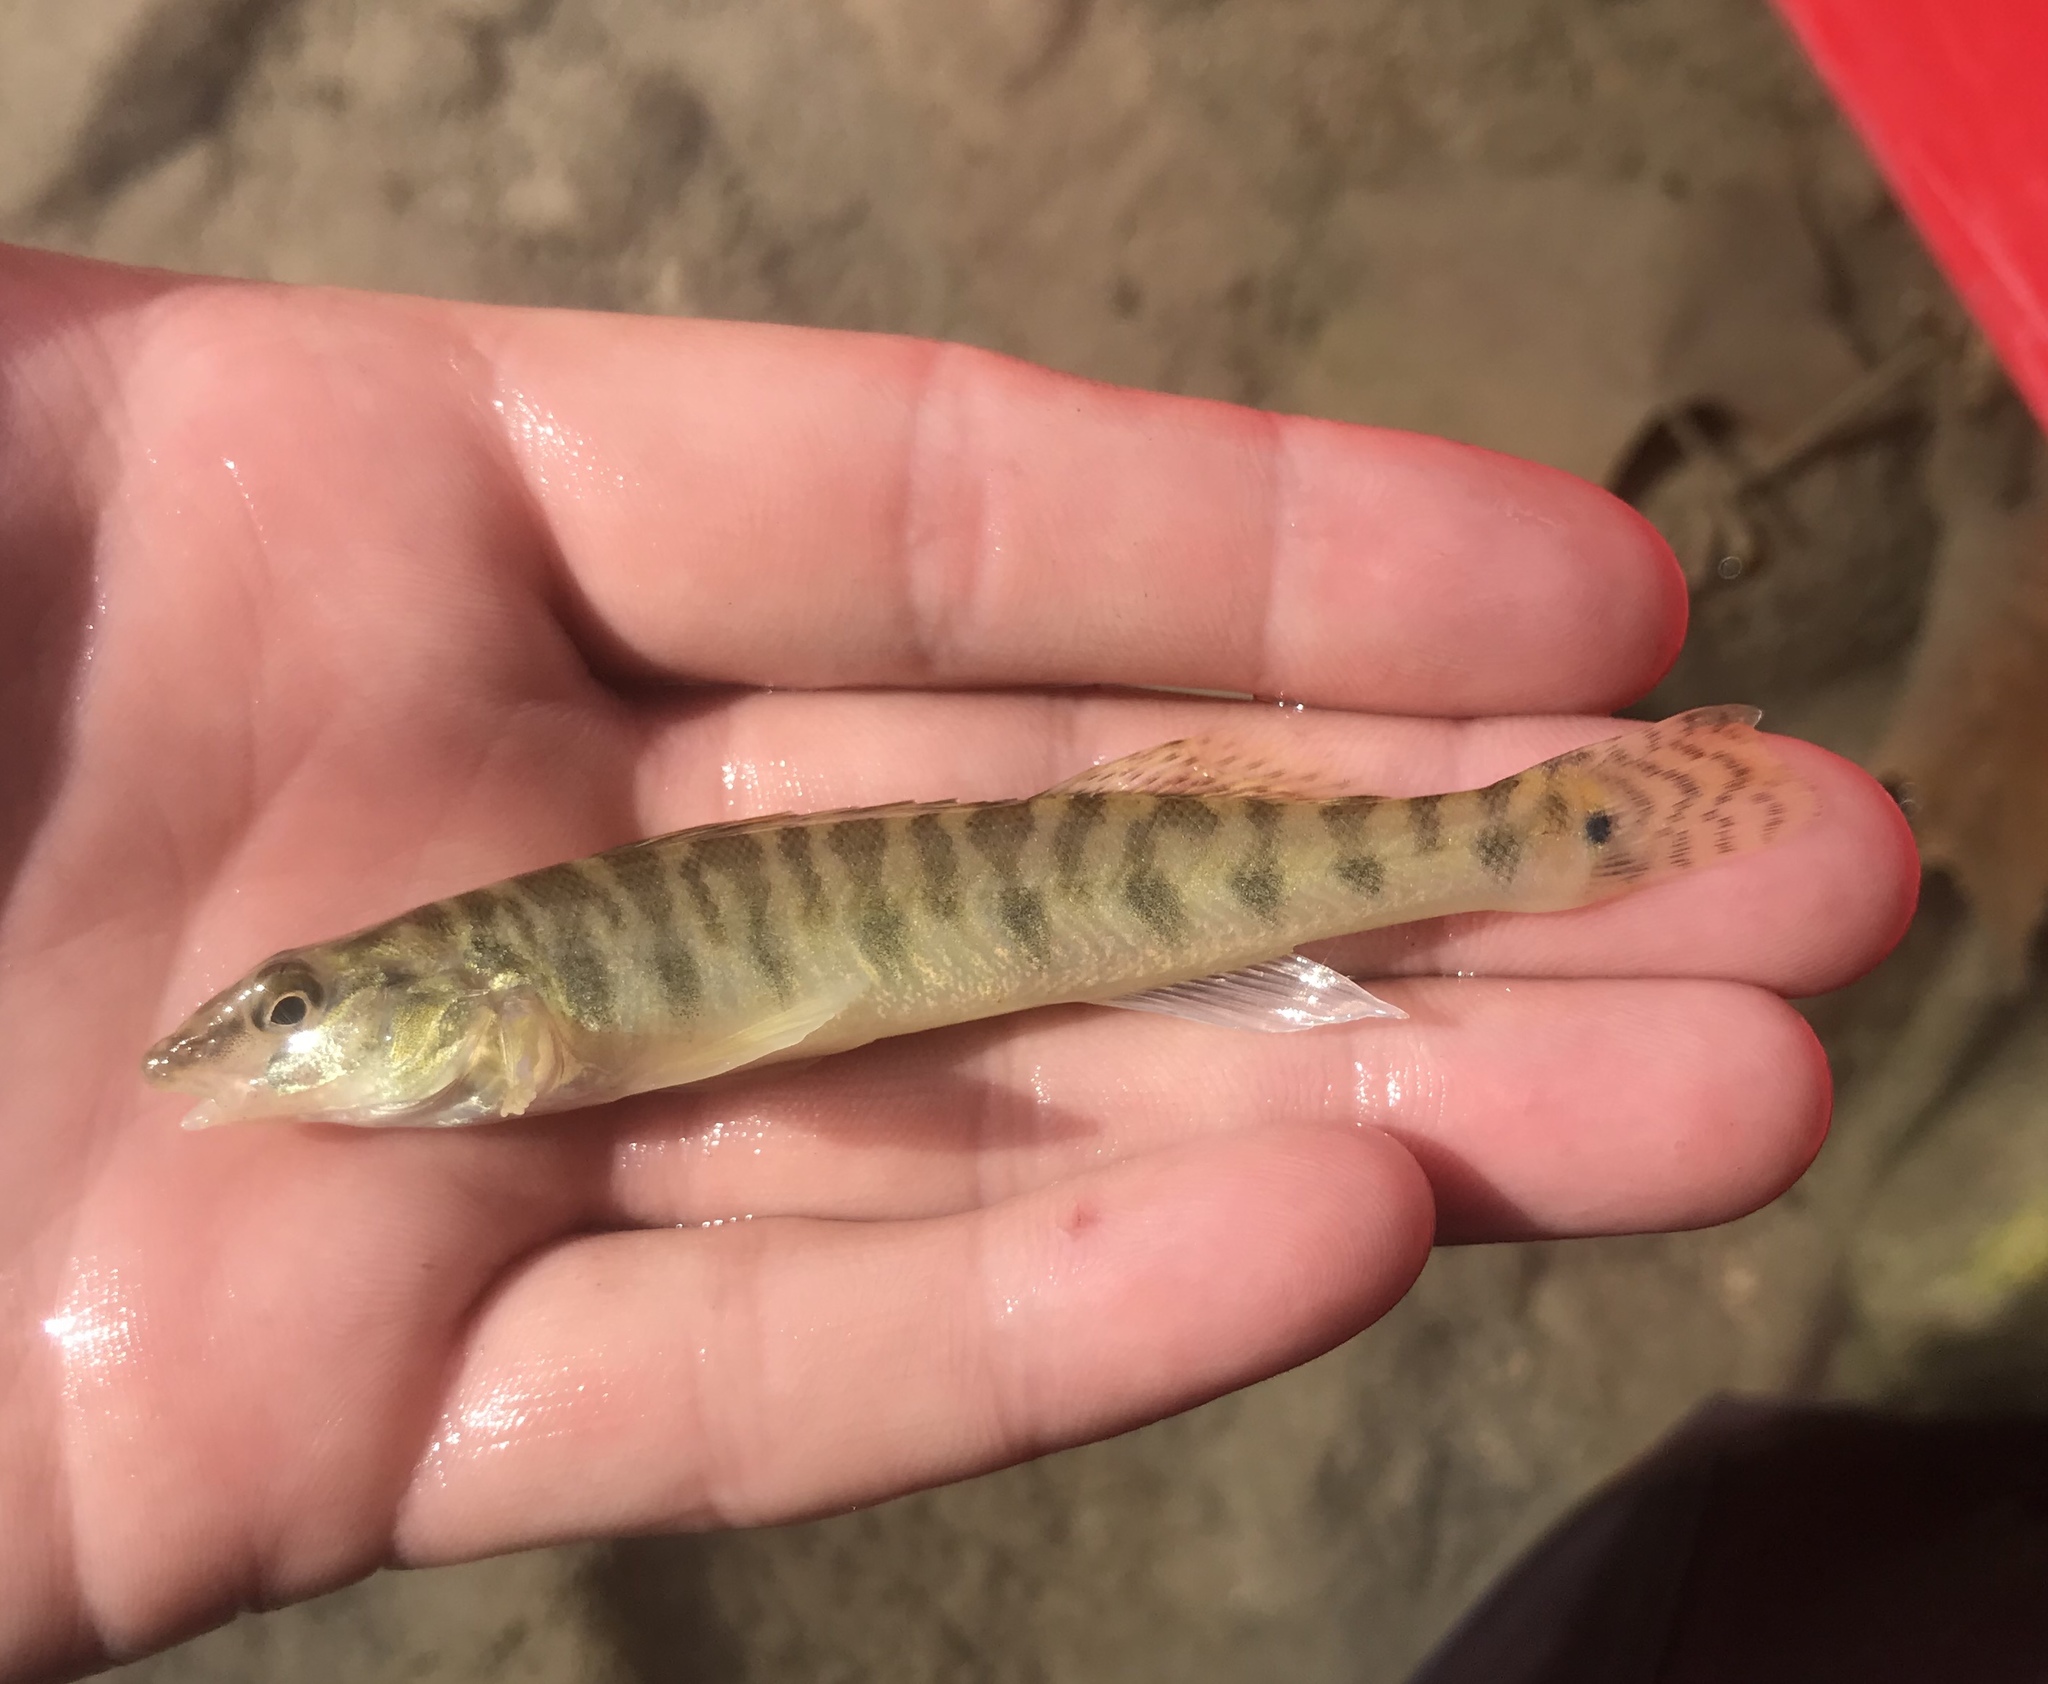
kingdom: Animalia
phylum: Chordata
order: Perciformes
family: Percidae
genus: Percina
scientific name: Percina carbonaria
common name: Texas logperch
